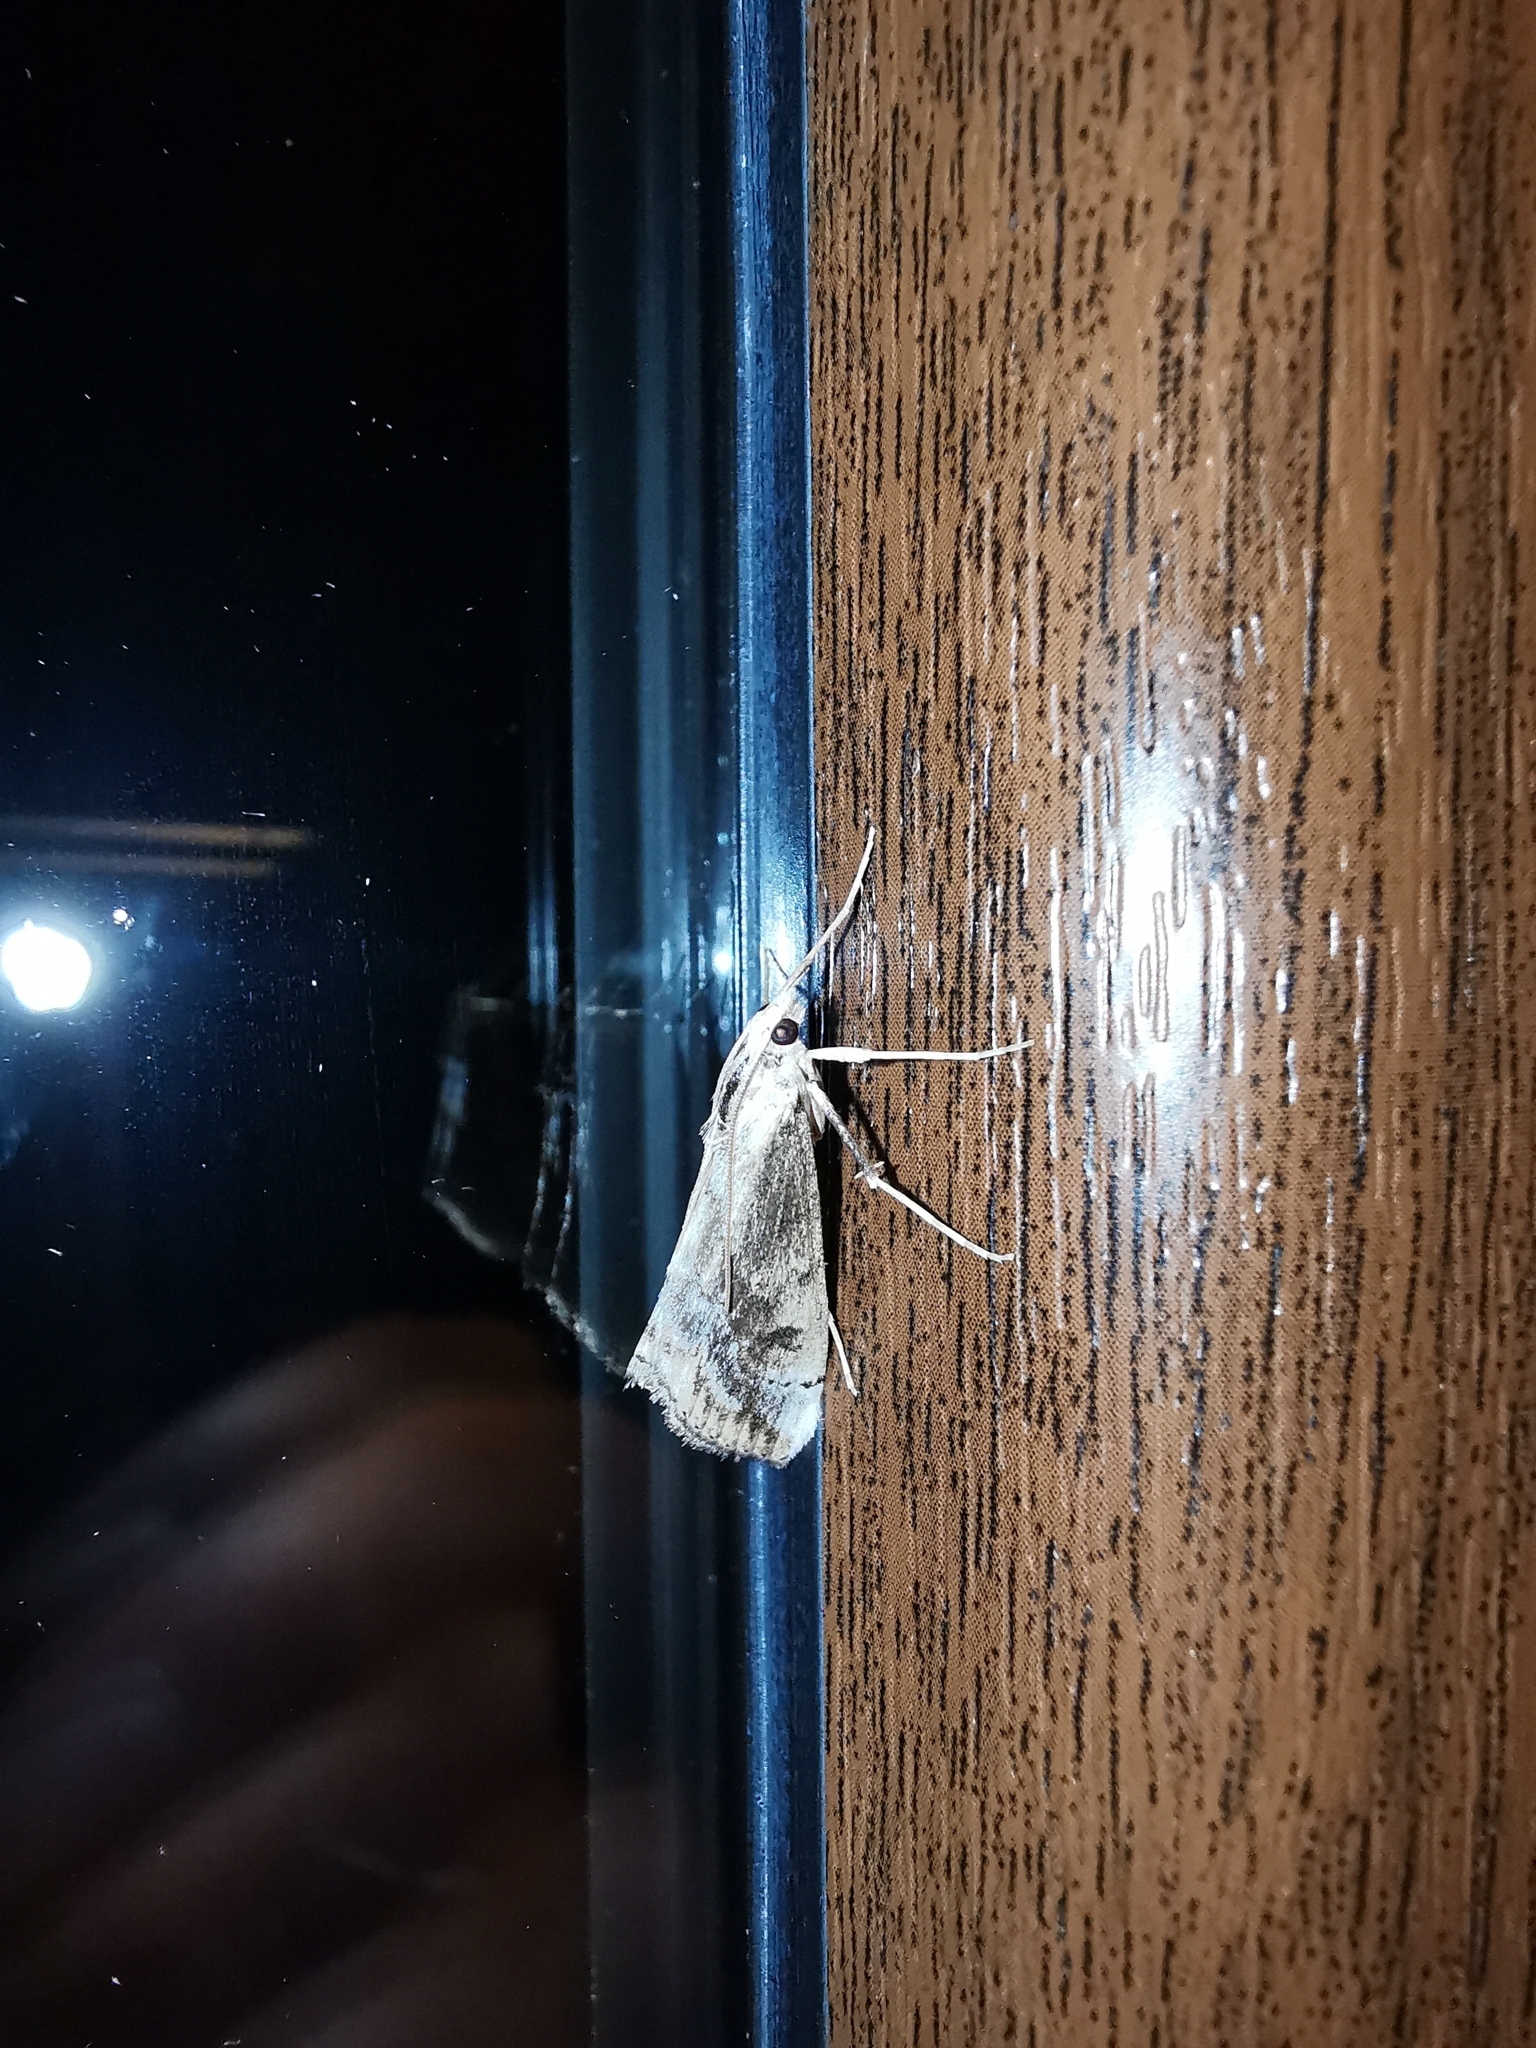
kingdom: Animalia
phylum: Arthropoda
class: Insecta
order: Lepidoptera
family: Crambidae
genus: Evergestis
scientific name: Evergestis isatidalis
